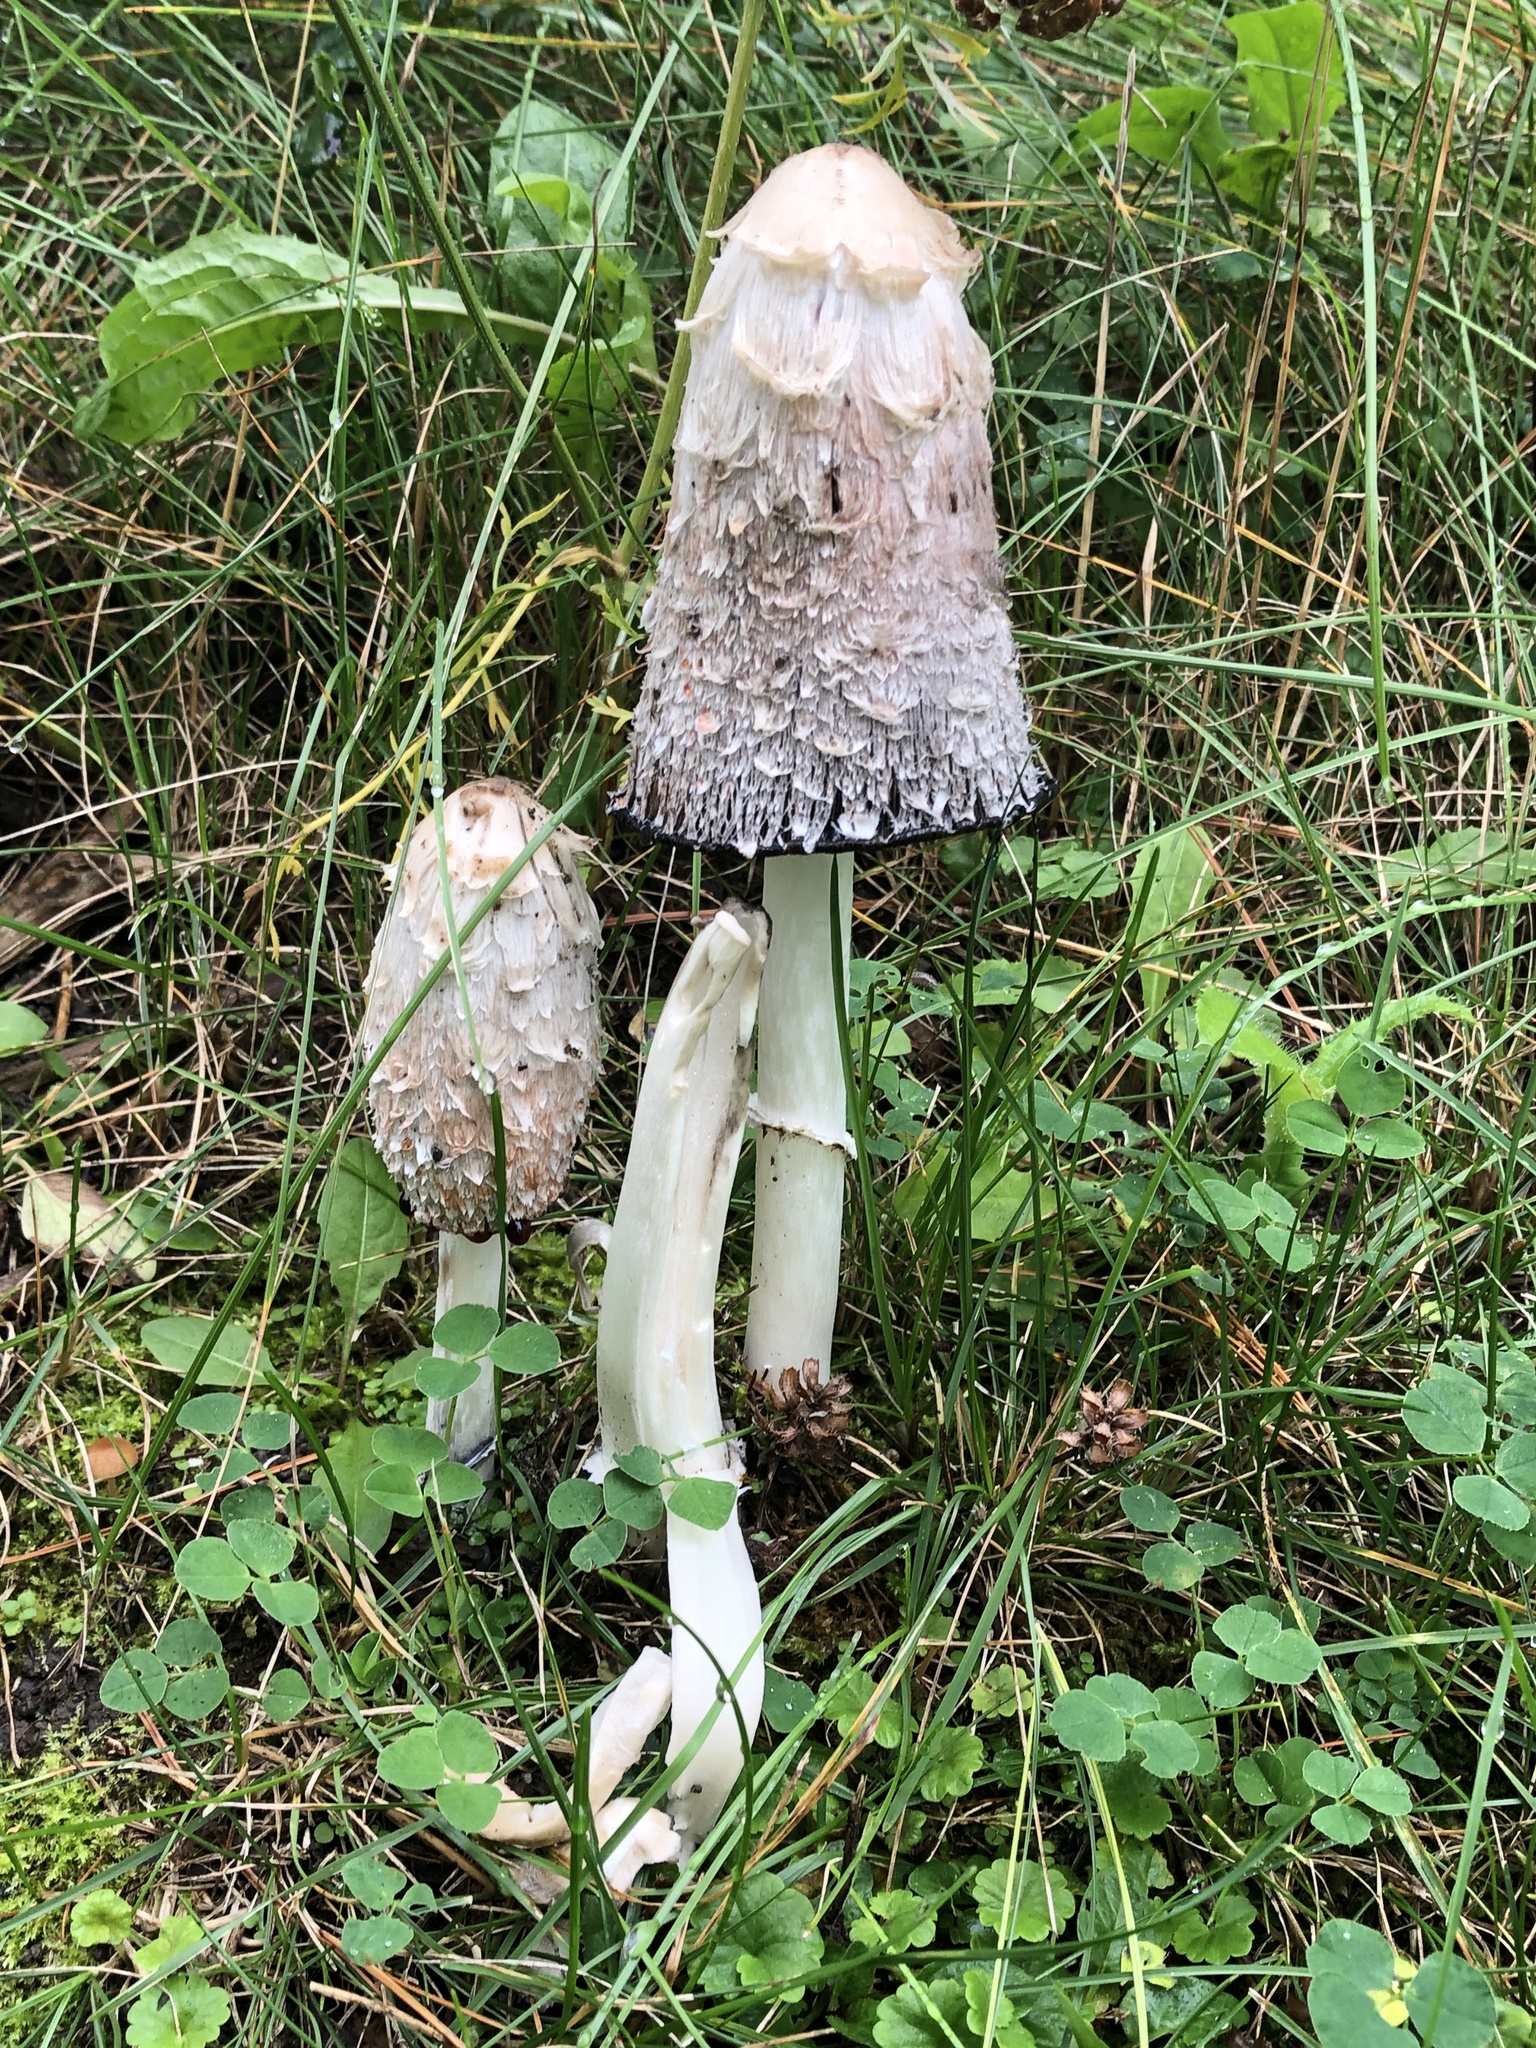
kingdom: Fungi
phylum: Basidiomycota
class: Agaricomycetes
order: Agaricales
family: Agaricaceae
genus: Coprinus
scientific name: Coprinus comatus
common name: Lawyer's wig
